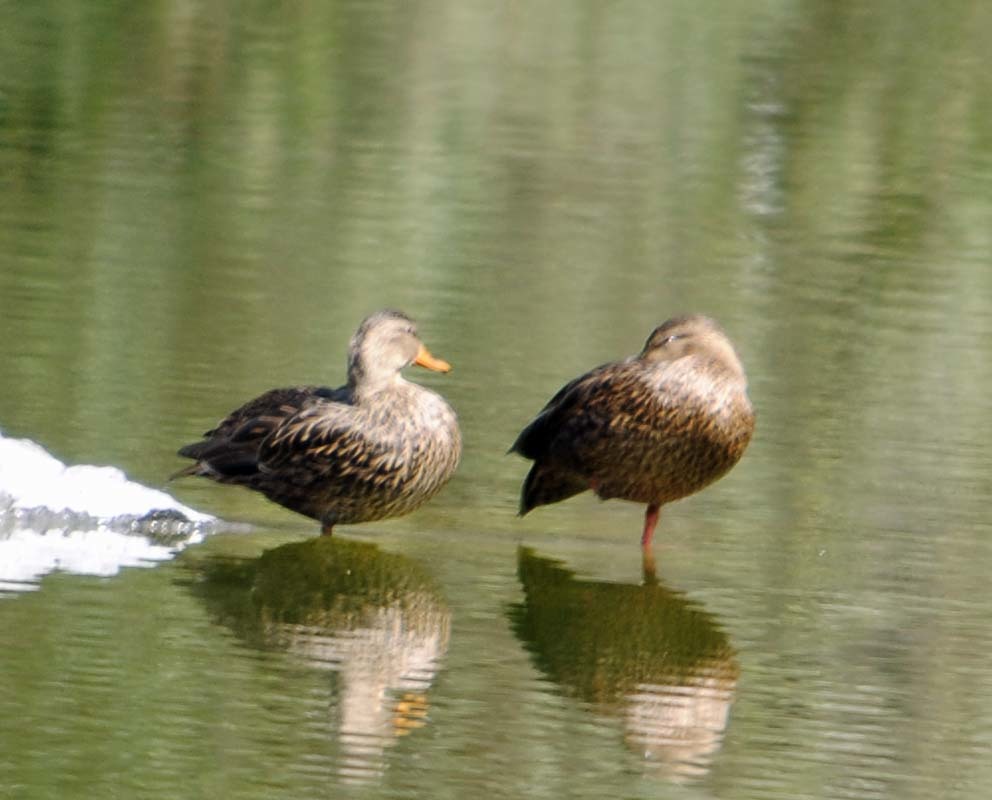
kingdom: Animalia
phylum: Chordata
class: Aves
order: Anseriformes
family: Anatidae
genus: Anas
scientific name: Anas diazi
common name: Mexican duck
